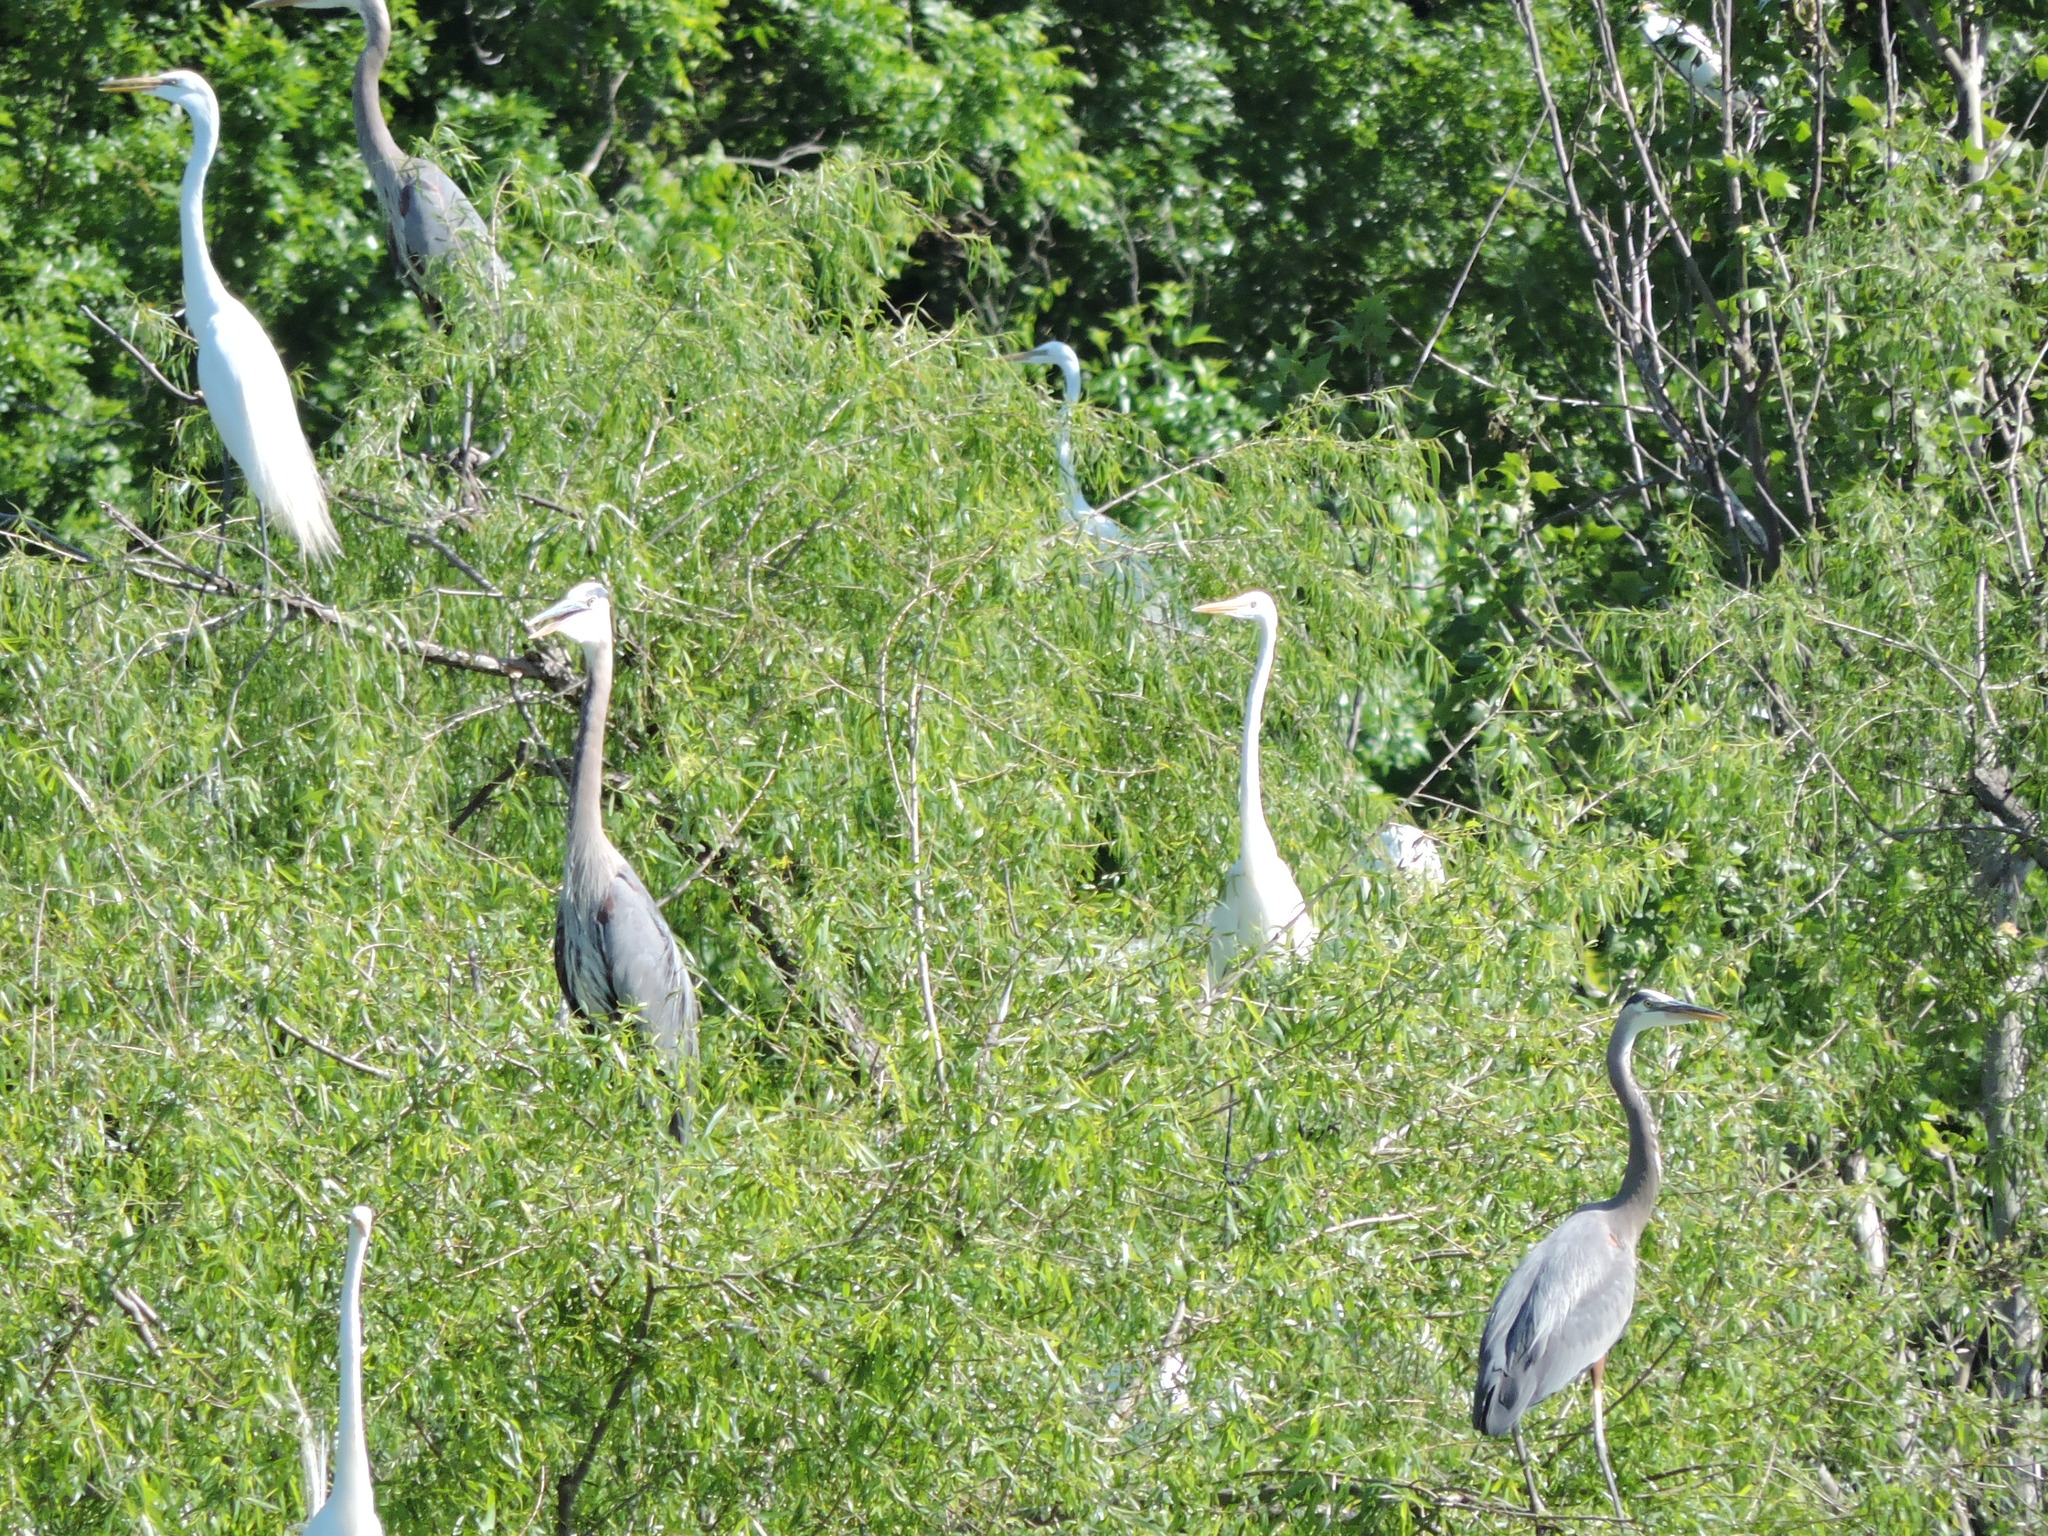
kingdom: Animalia
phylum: Chordata
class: Aves
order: Pelecaniformes
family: Ardeidae
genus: Ardea
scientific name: Ardea herodias
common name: Great blue heron
